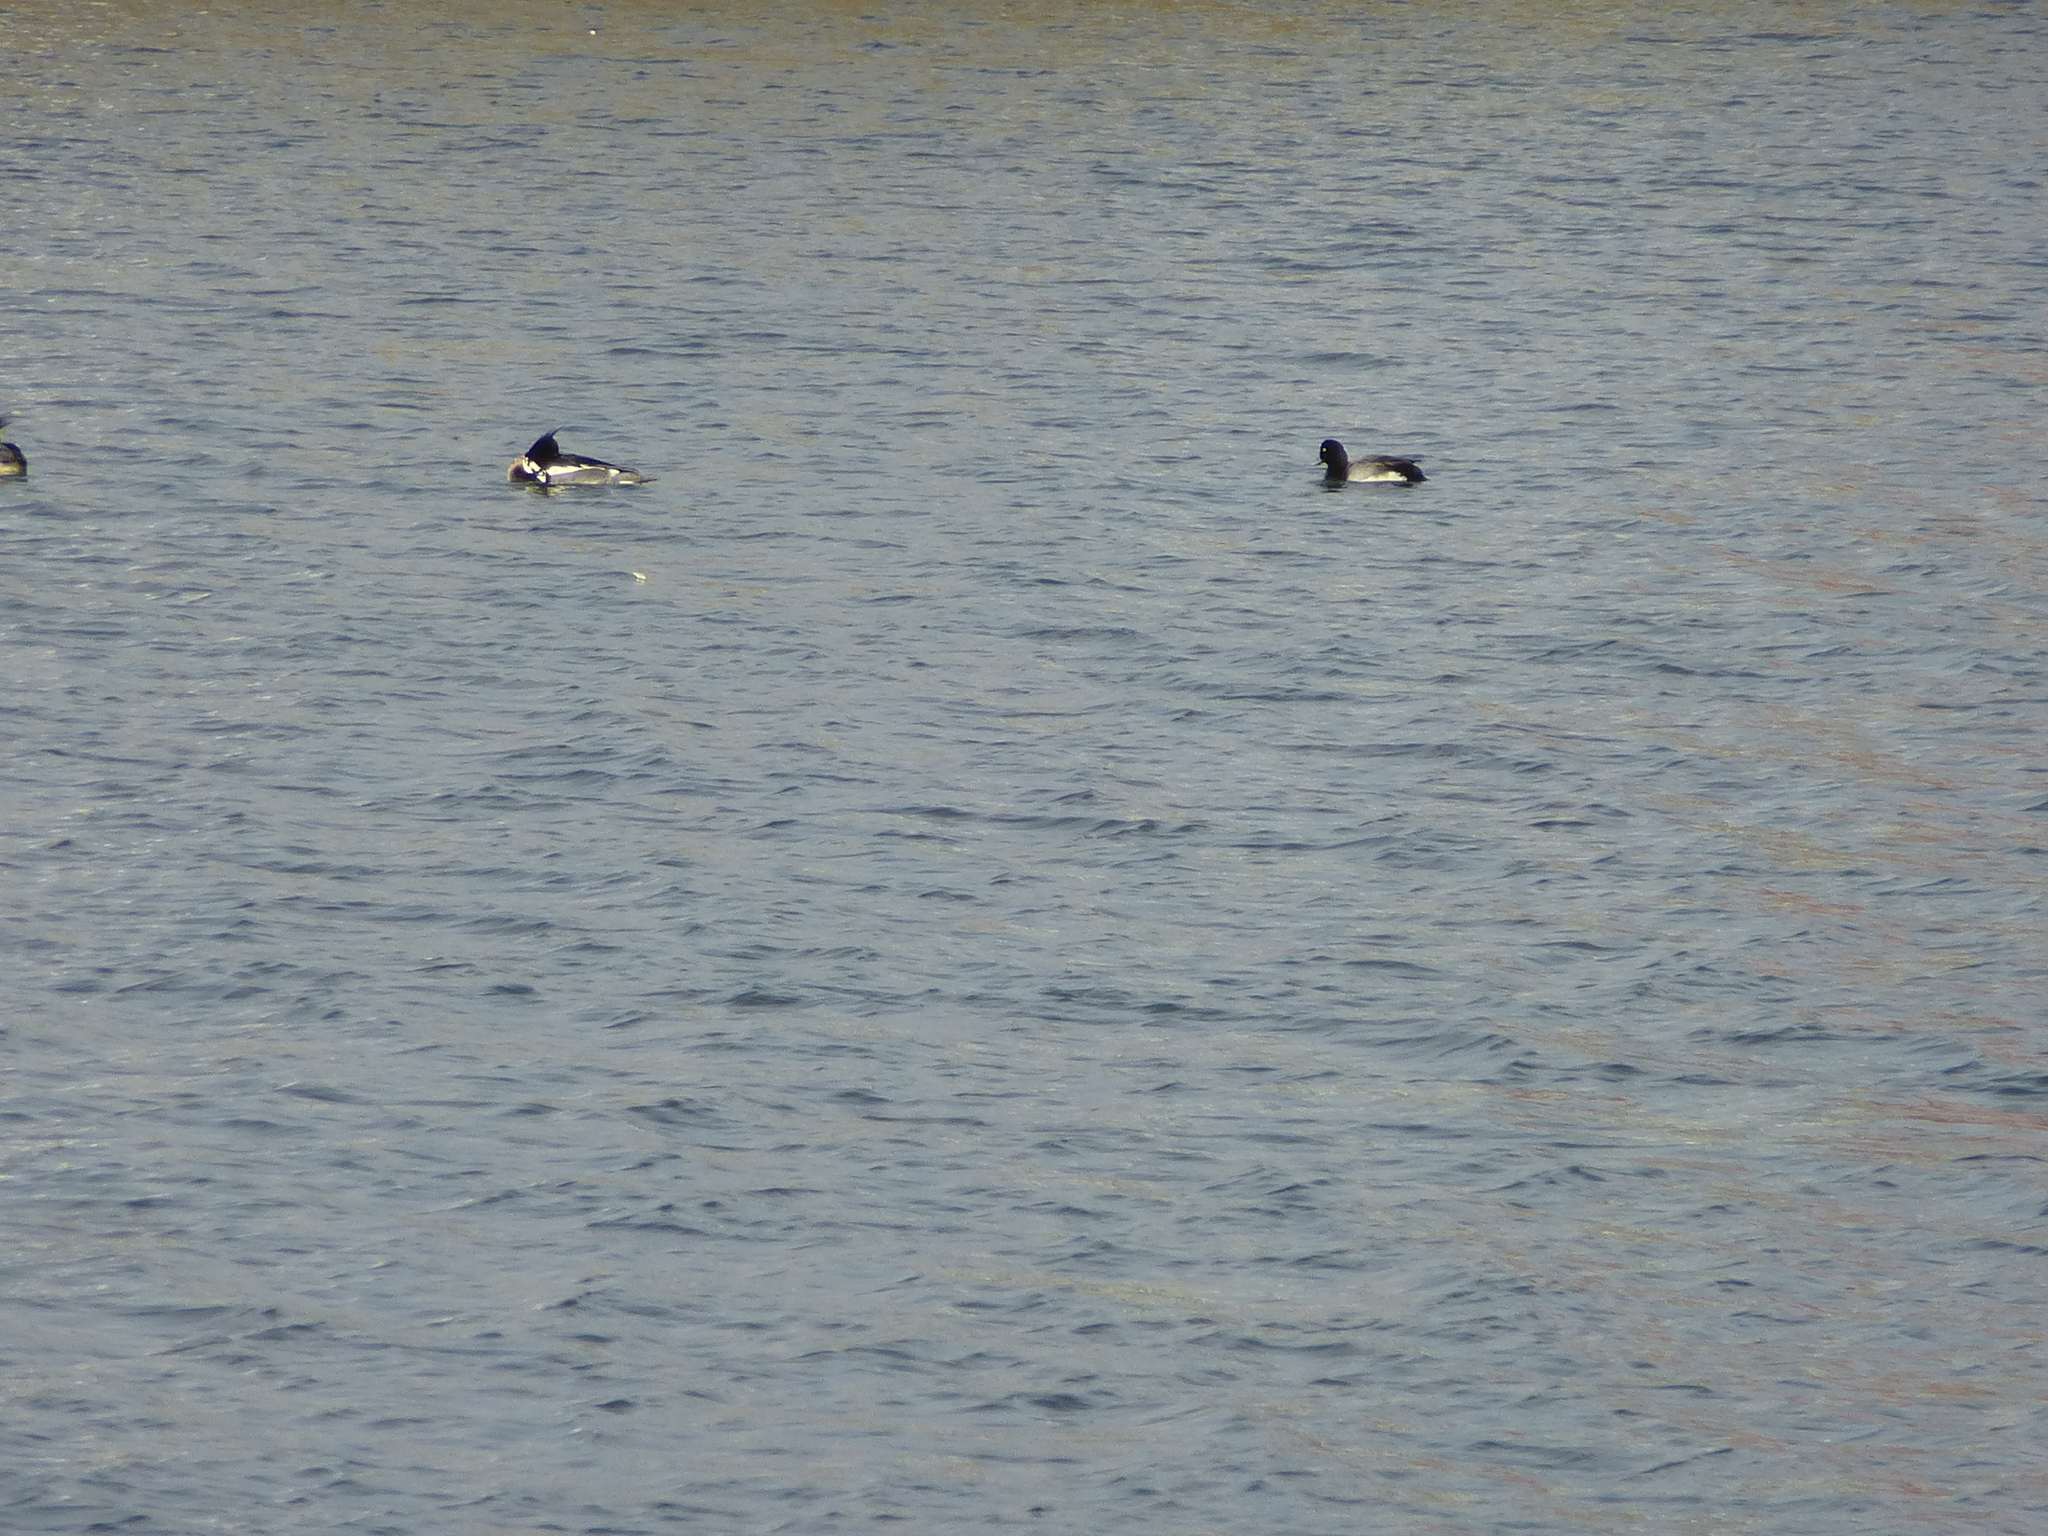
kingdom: Animalia
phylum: Chordata
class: Aves
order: Anseriformes
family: Anatidae
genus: Mergus
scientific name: Mergus serrator
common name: Red-breasted merganser
